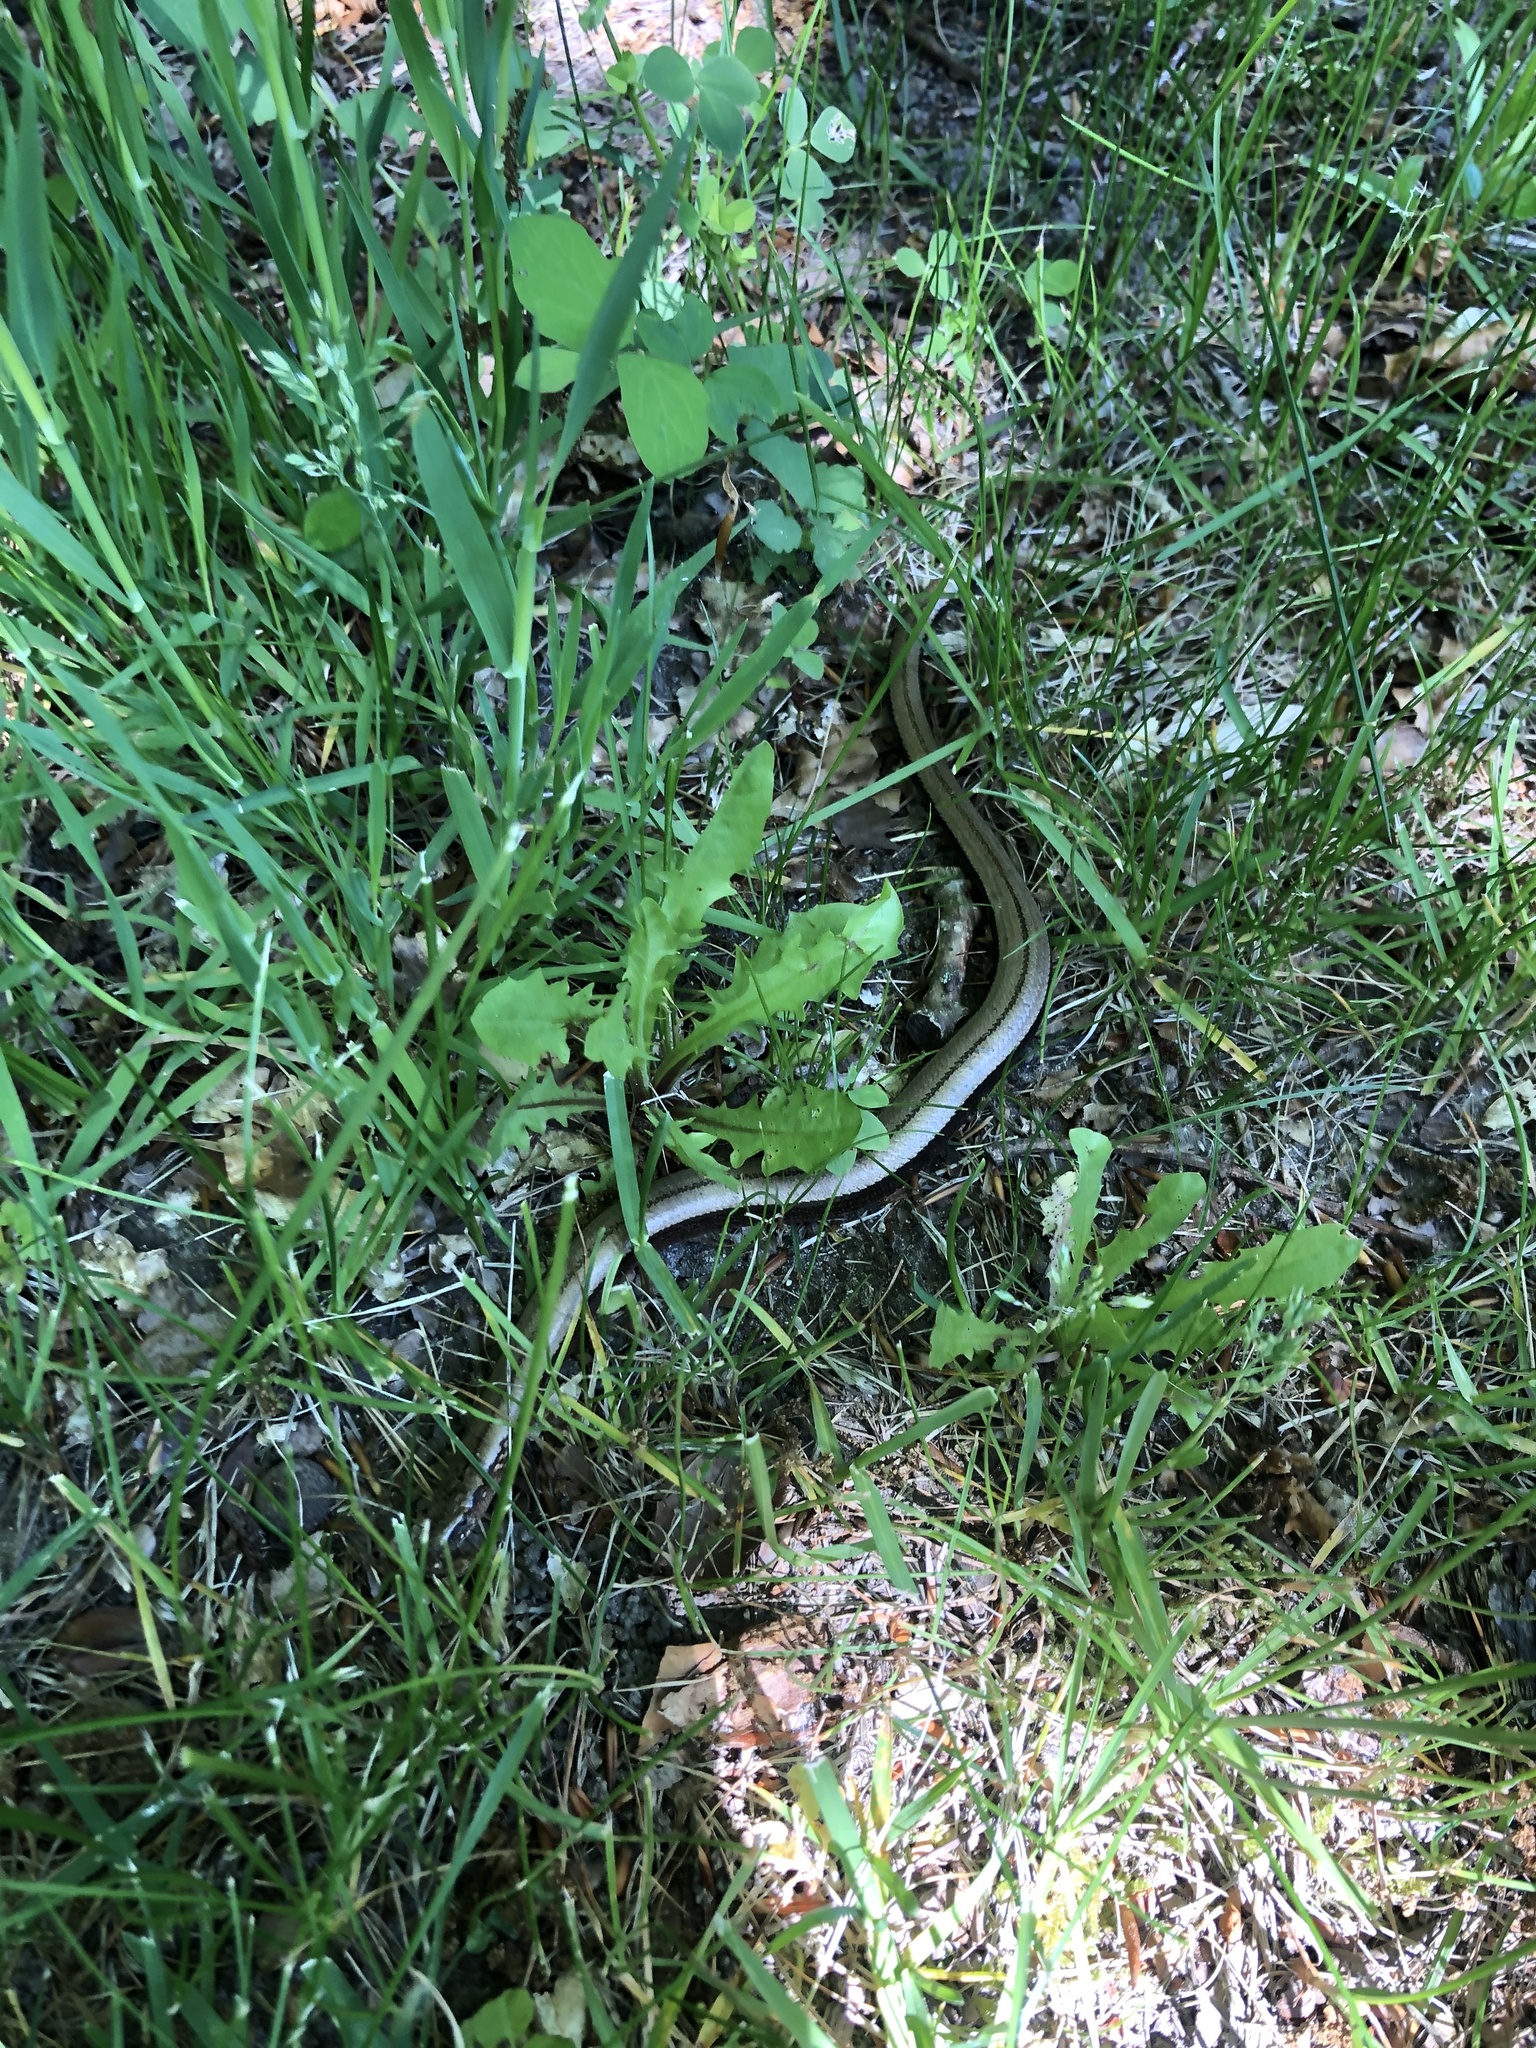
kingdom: Animalia
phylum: Chordata
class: Squamata
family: Anguidae
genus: Anguis
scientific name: Anguis fragilis
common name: Slow worm
